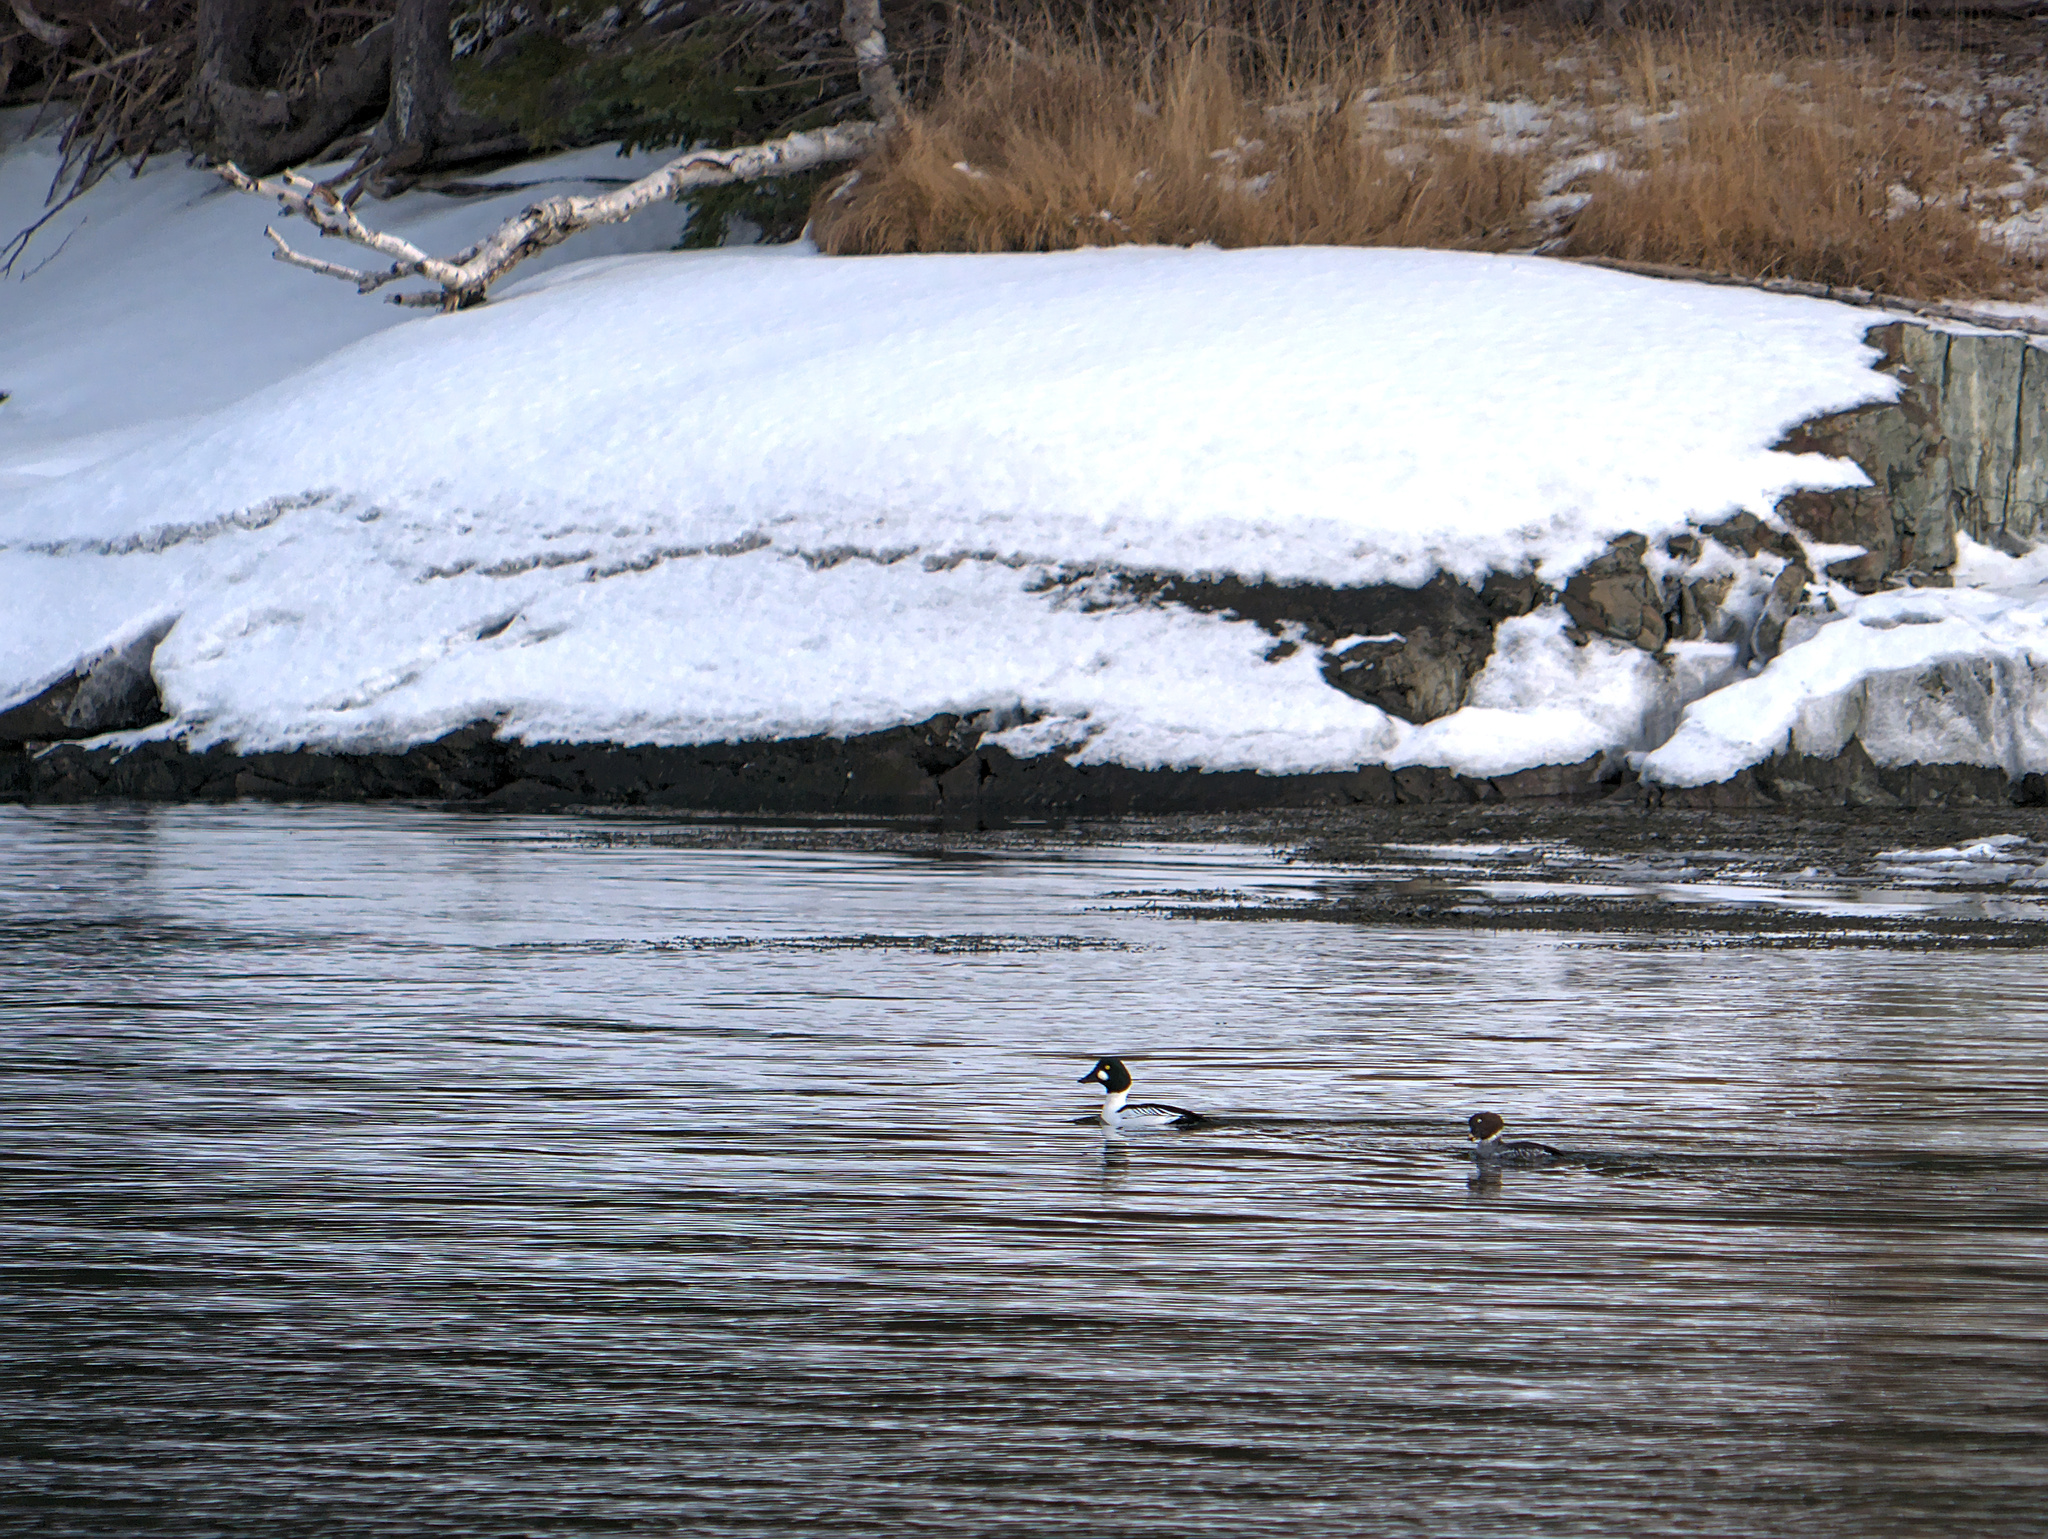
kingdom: Animalia
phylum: Chordata
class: Aves
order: Anseriformes
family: Anatidae
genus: Bucephala
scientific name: Bucephala clangula
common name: Common goldeneye
